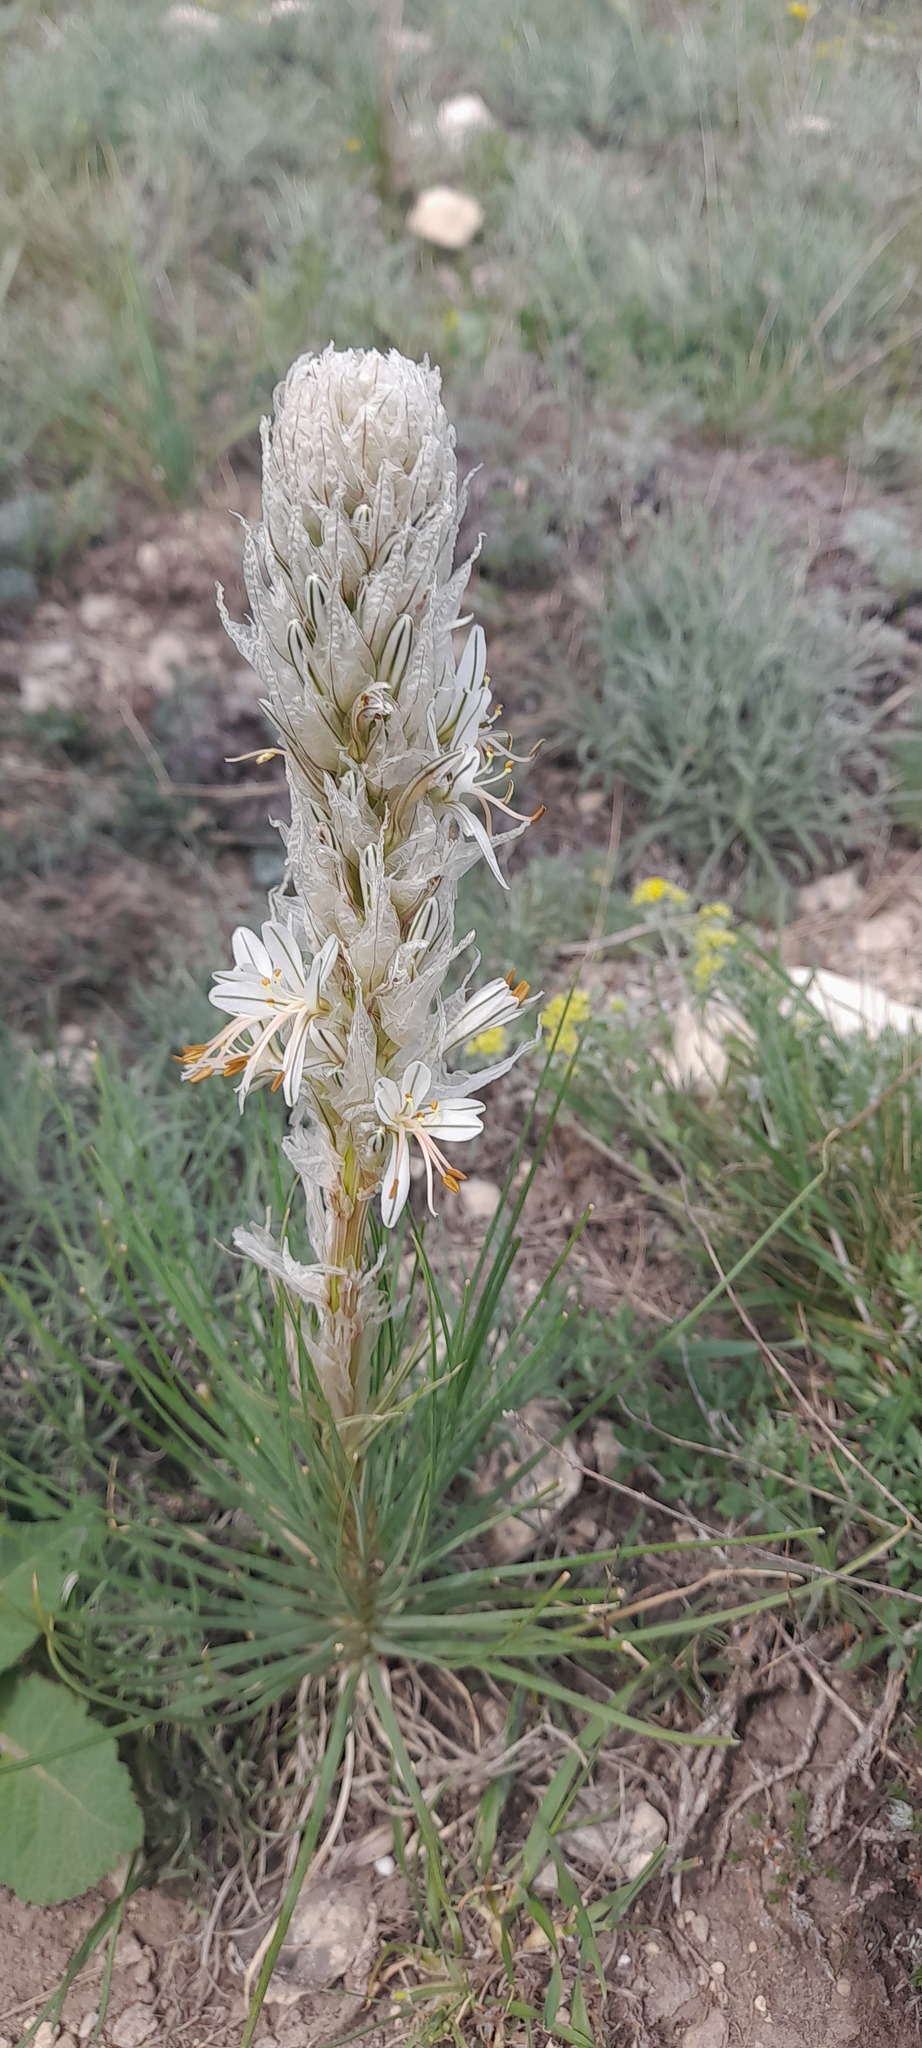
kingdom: Plantae
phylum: Tracheophyta
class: Liliopsida
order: Asparagales
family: Asphodelaceae
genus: Asphodeline
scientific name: Asphodeline taurica
